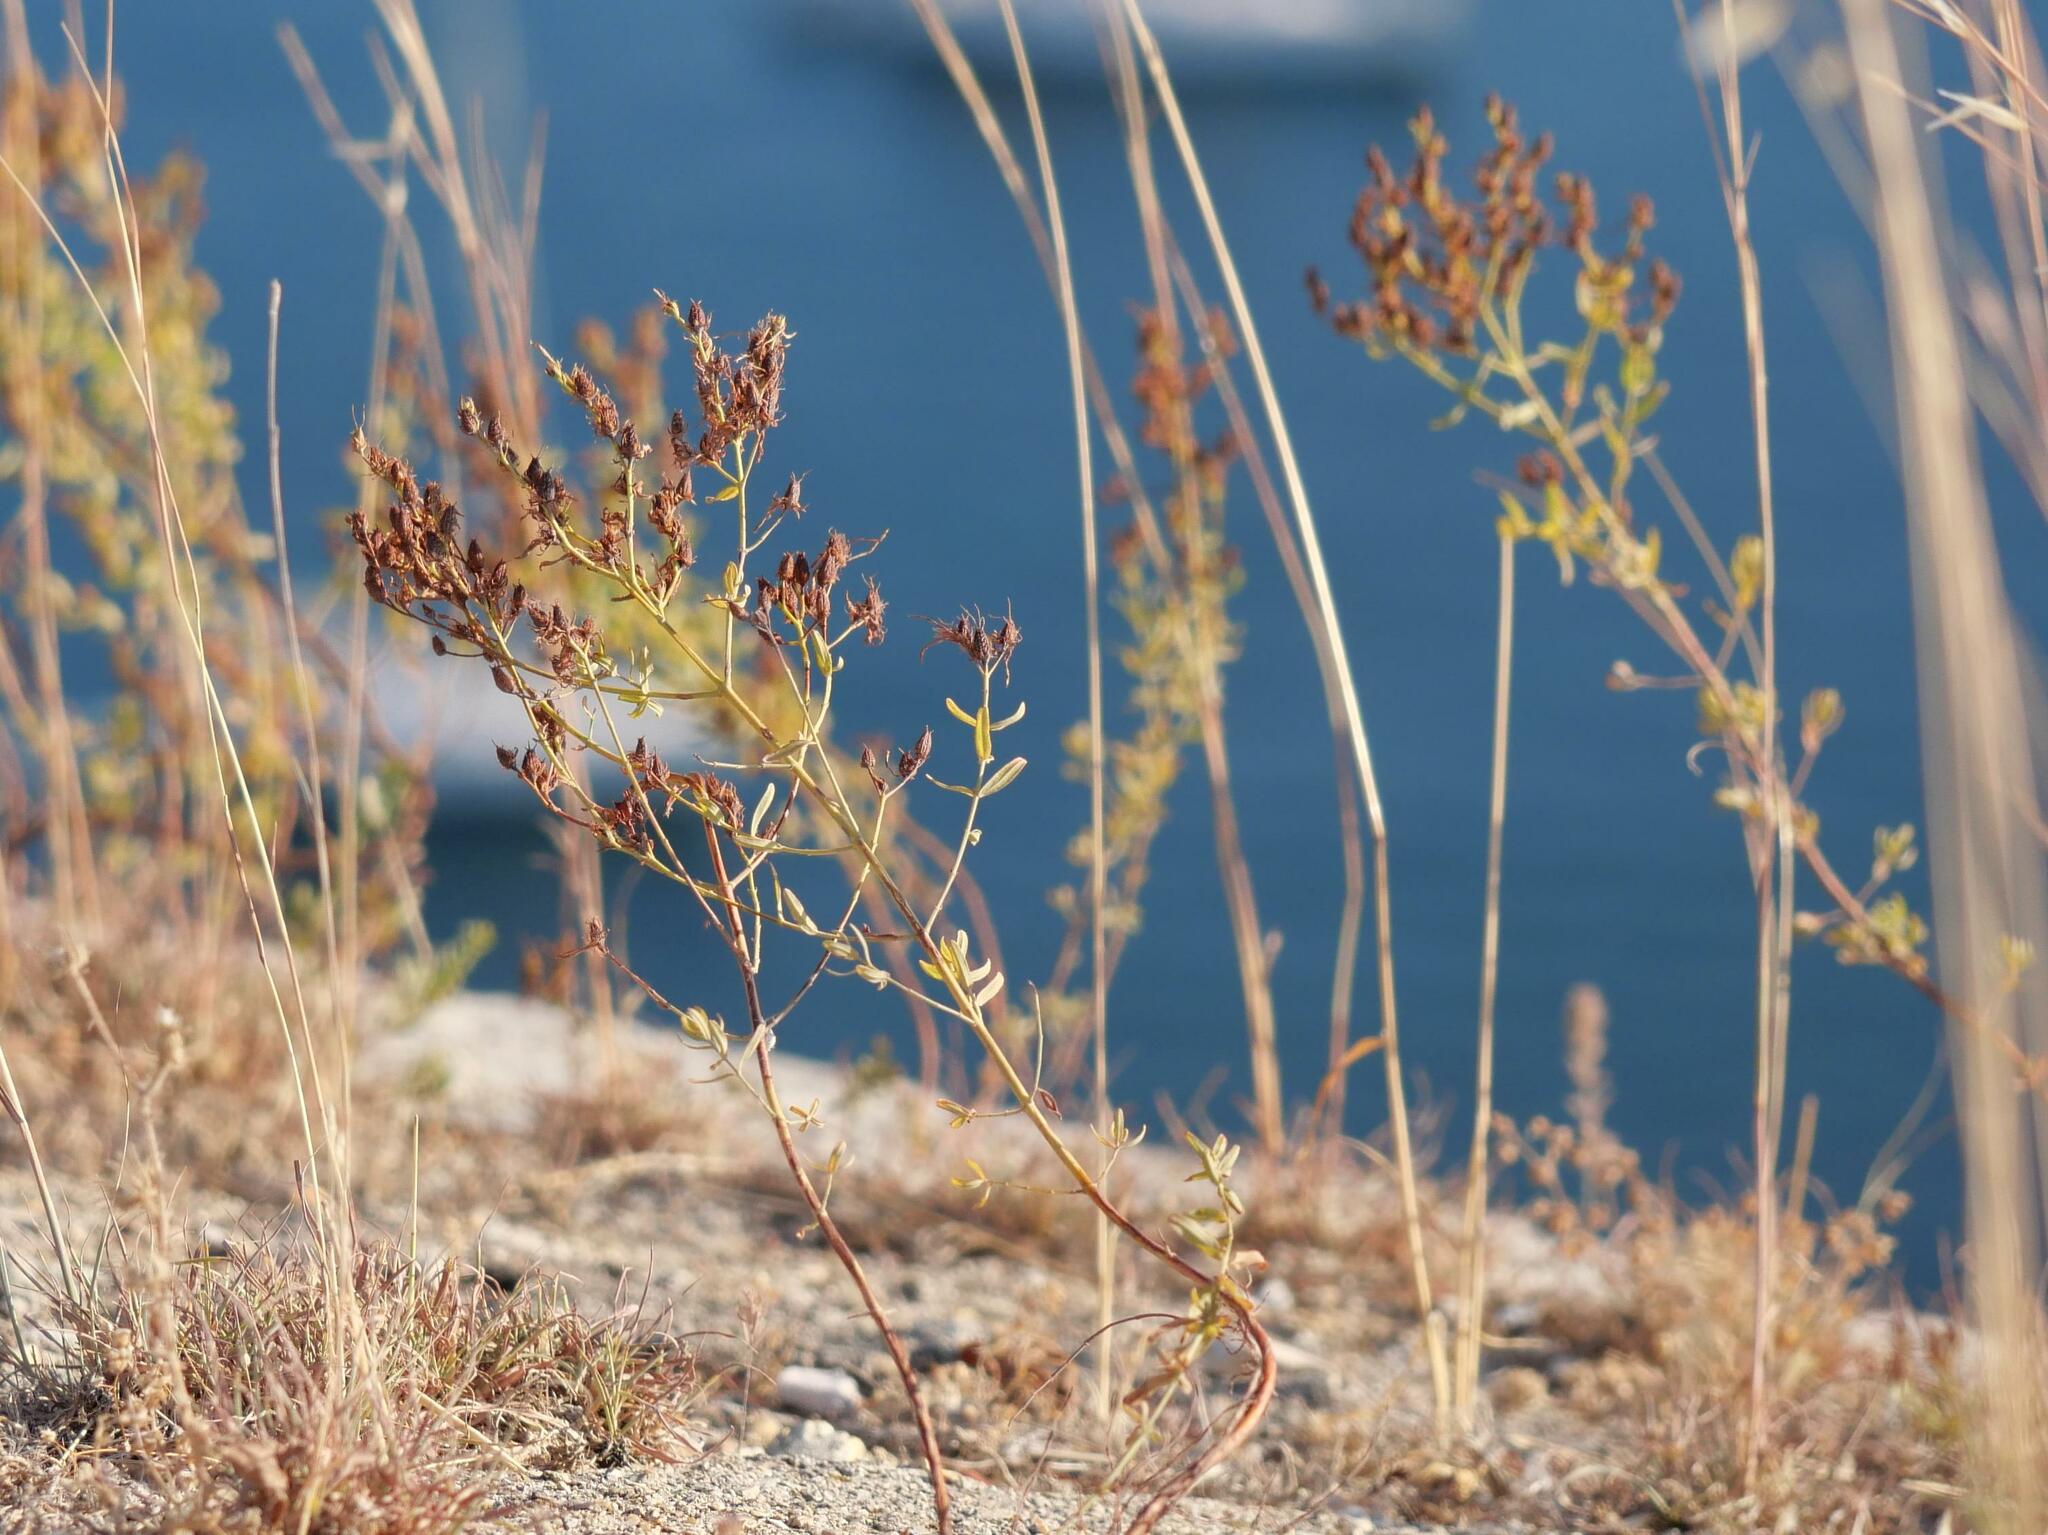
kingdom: Plantae
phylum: Tracheophyta
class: Magnoliopsida
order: Malpighiales
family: Hypericaceae
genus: Hypericum
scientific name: Hypericum perforatum
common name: Common st. johnswort
